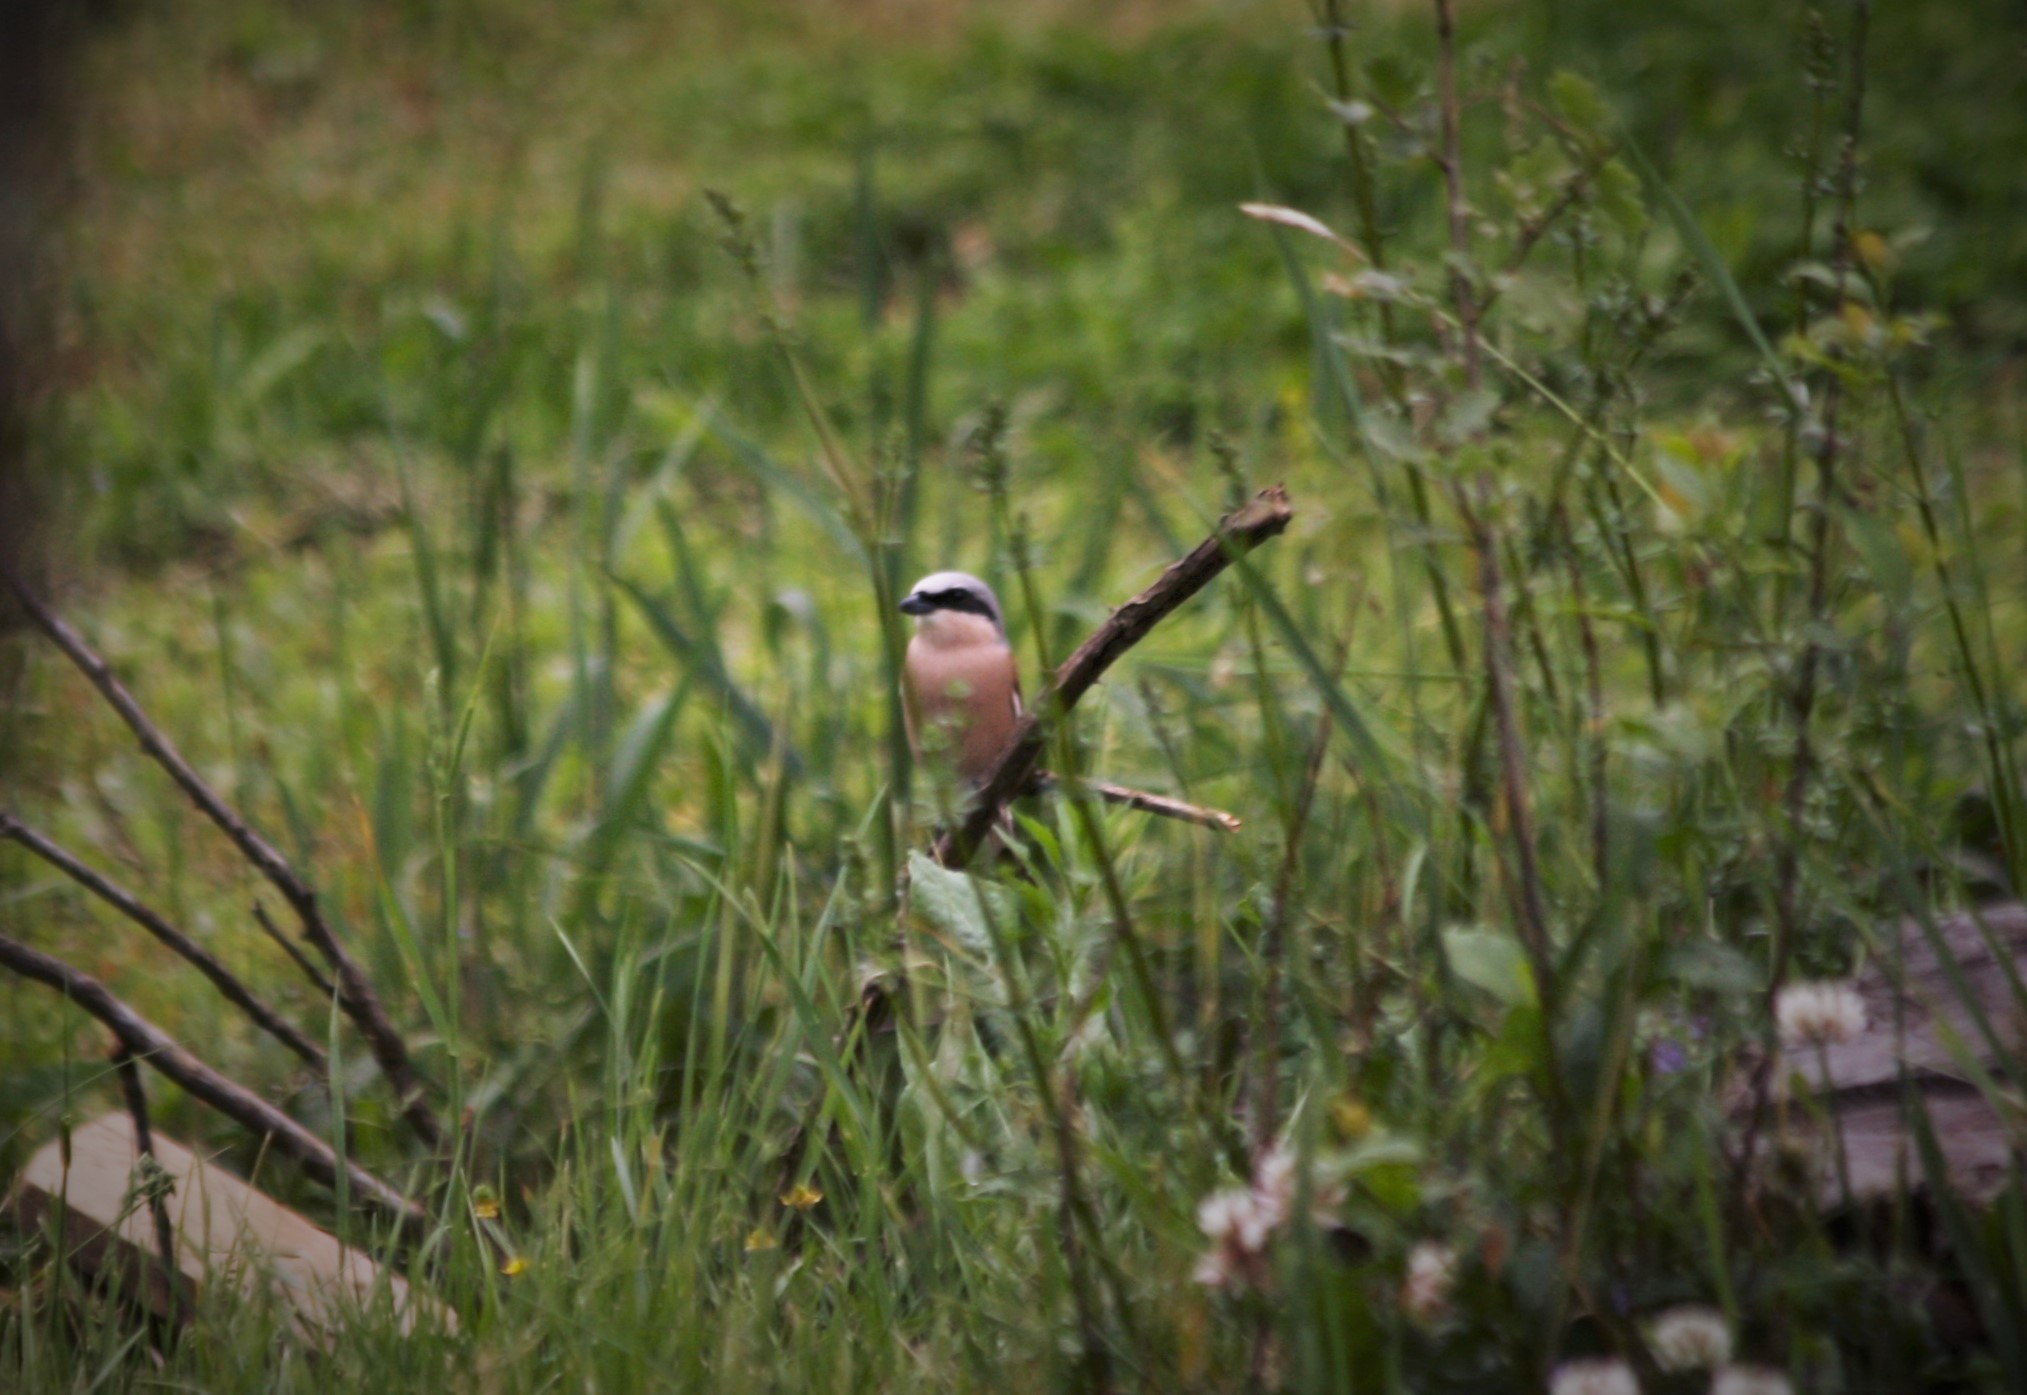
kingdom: Animalia
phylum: Chordata
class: Aves
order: Passeriformes
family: Laniidae
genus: Lanius
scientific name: Lanius collurio
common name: Red-backed shrike
